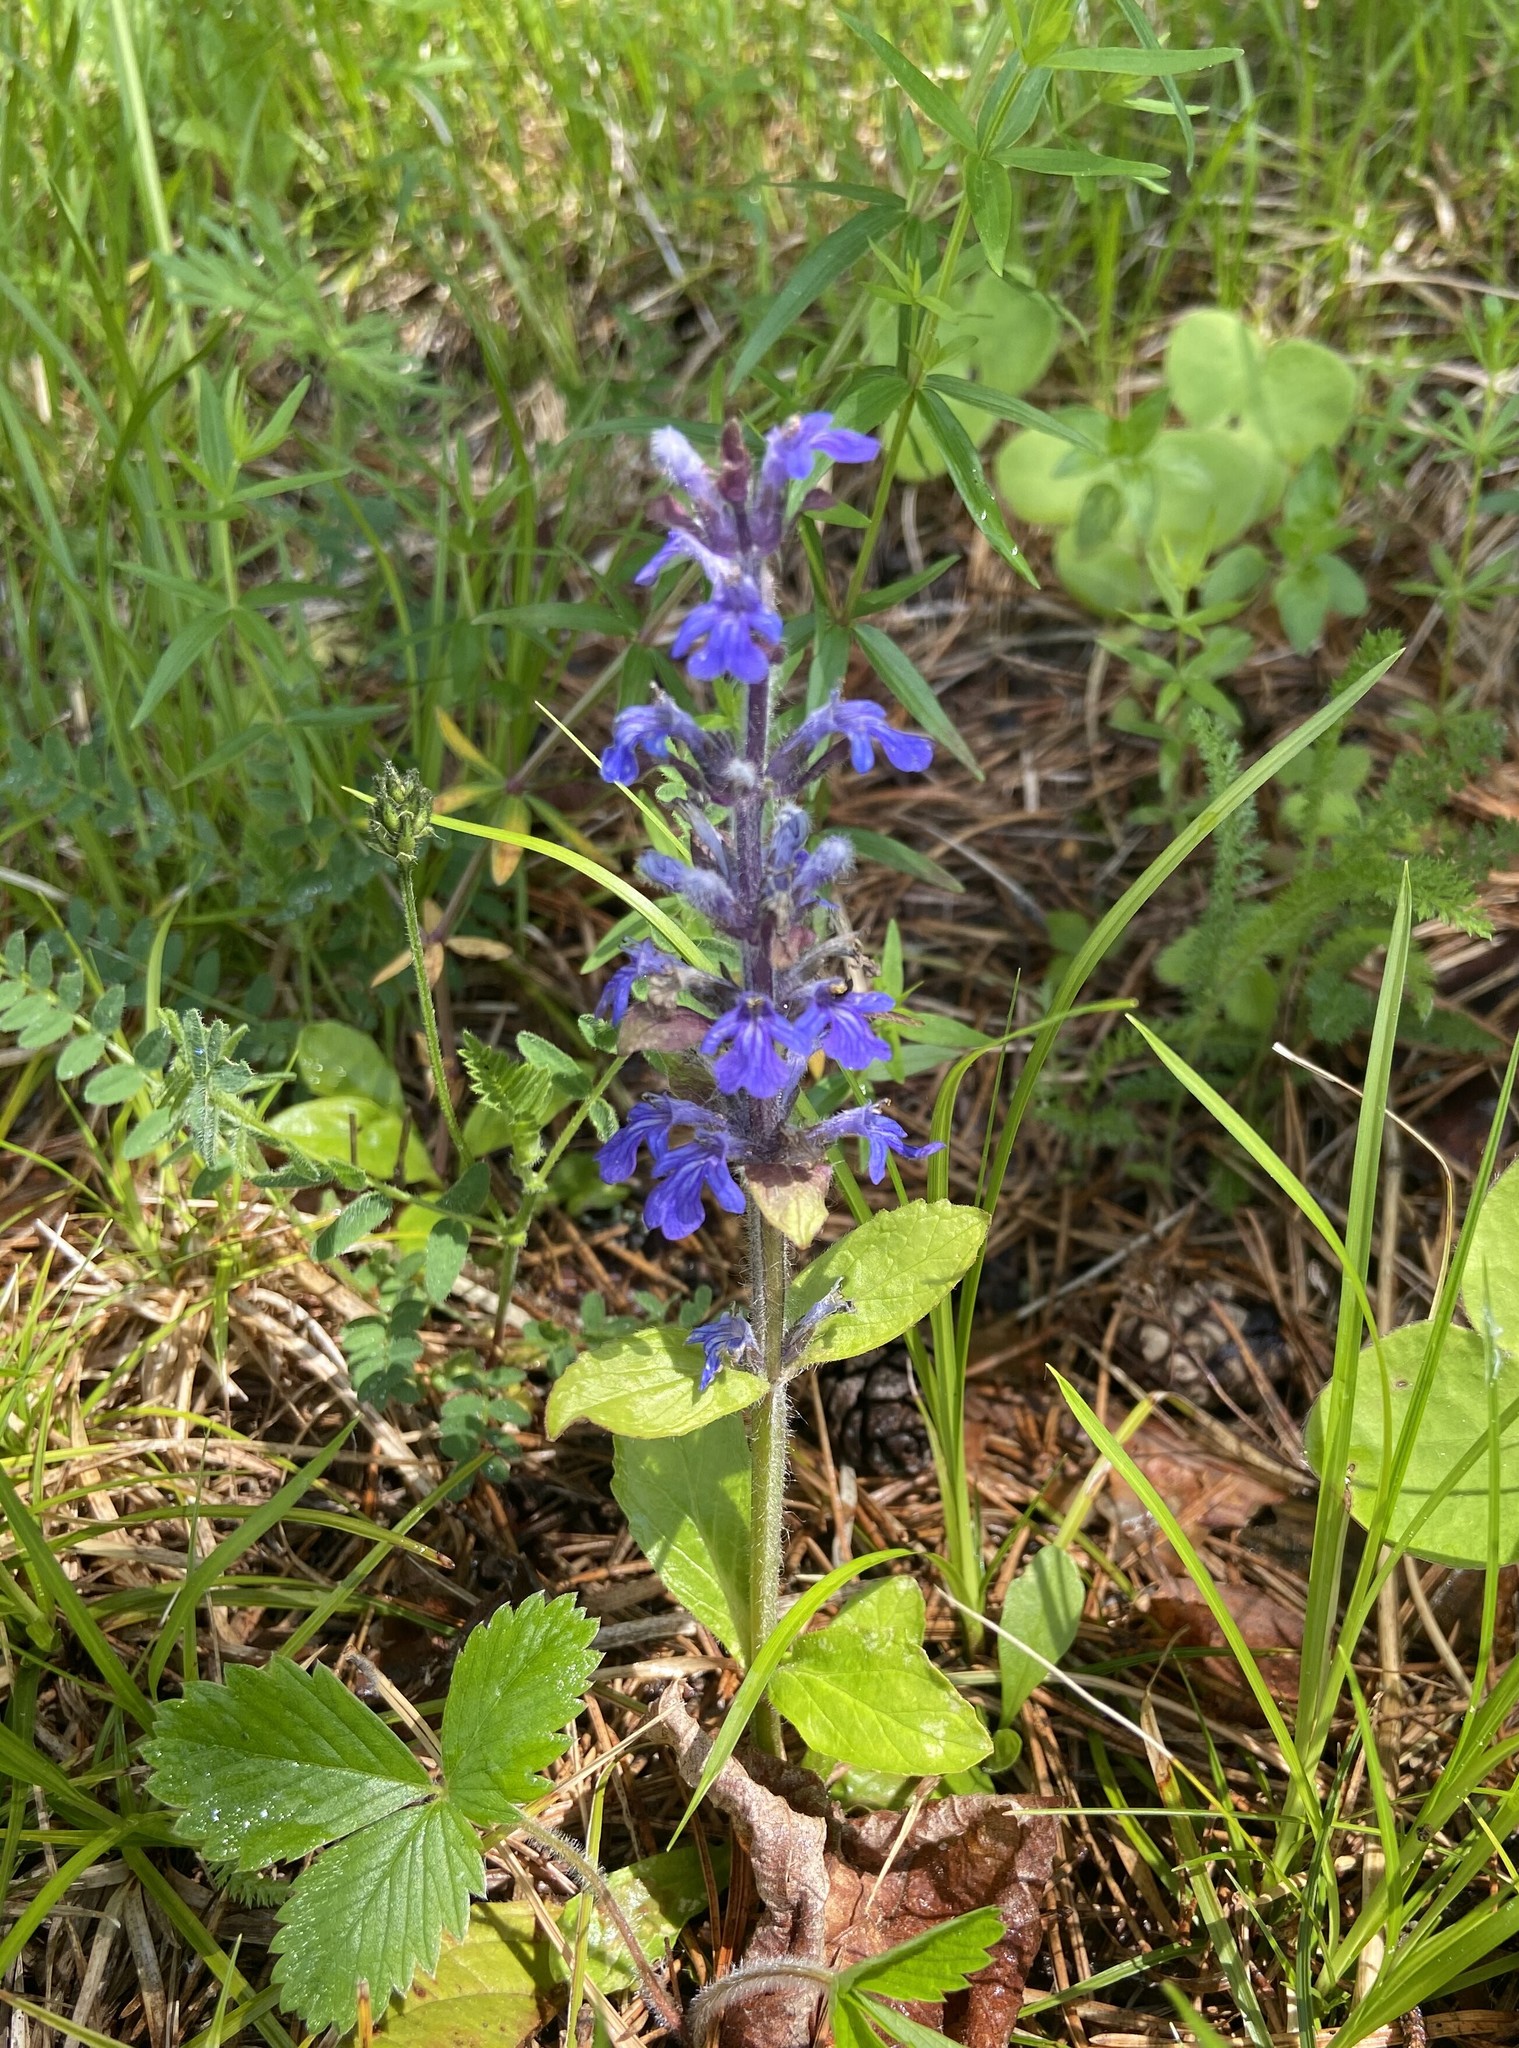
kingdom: Plantae
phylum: Tracheophyta
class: Magnoliopsida
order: Lamiales
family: Lamiaceae
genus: Ajuga
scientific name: Ajuga reptans
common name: Bugle
